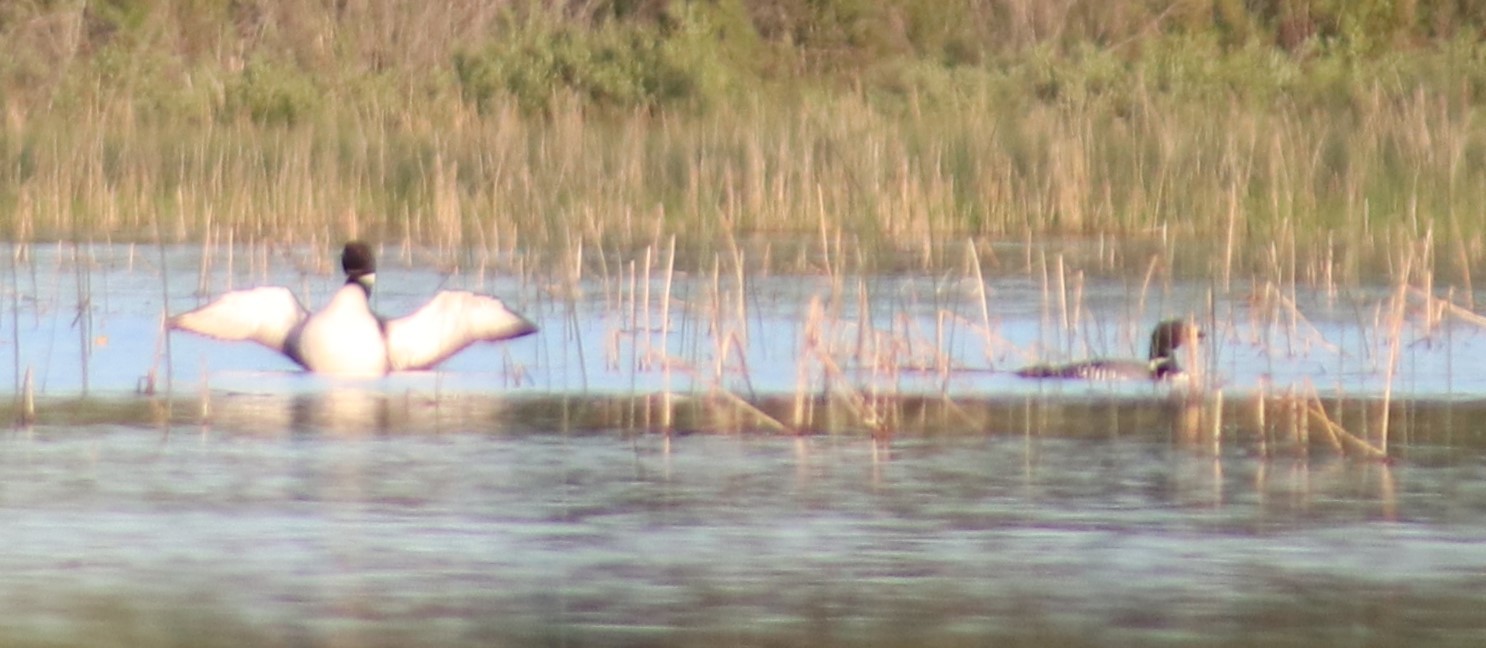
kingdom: Animalia
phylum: Chordata
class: Aves
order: Gaviiformes
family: Gaviidae
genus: Gavia
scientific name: Gavia immer
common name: Common loon
